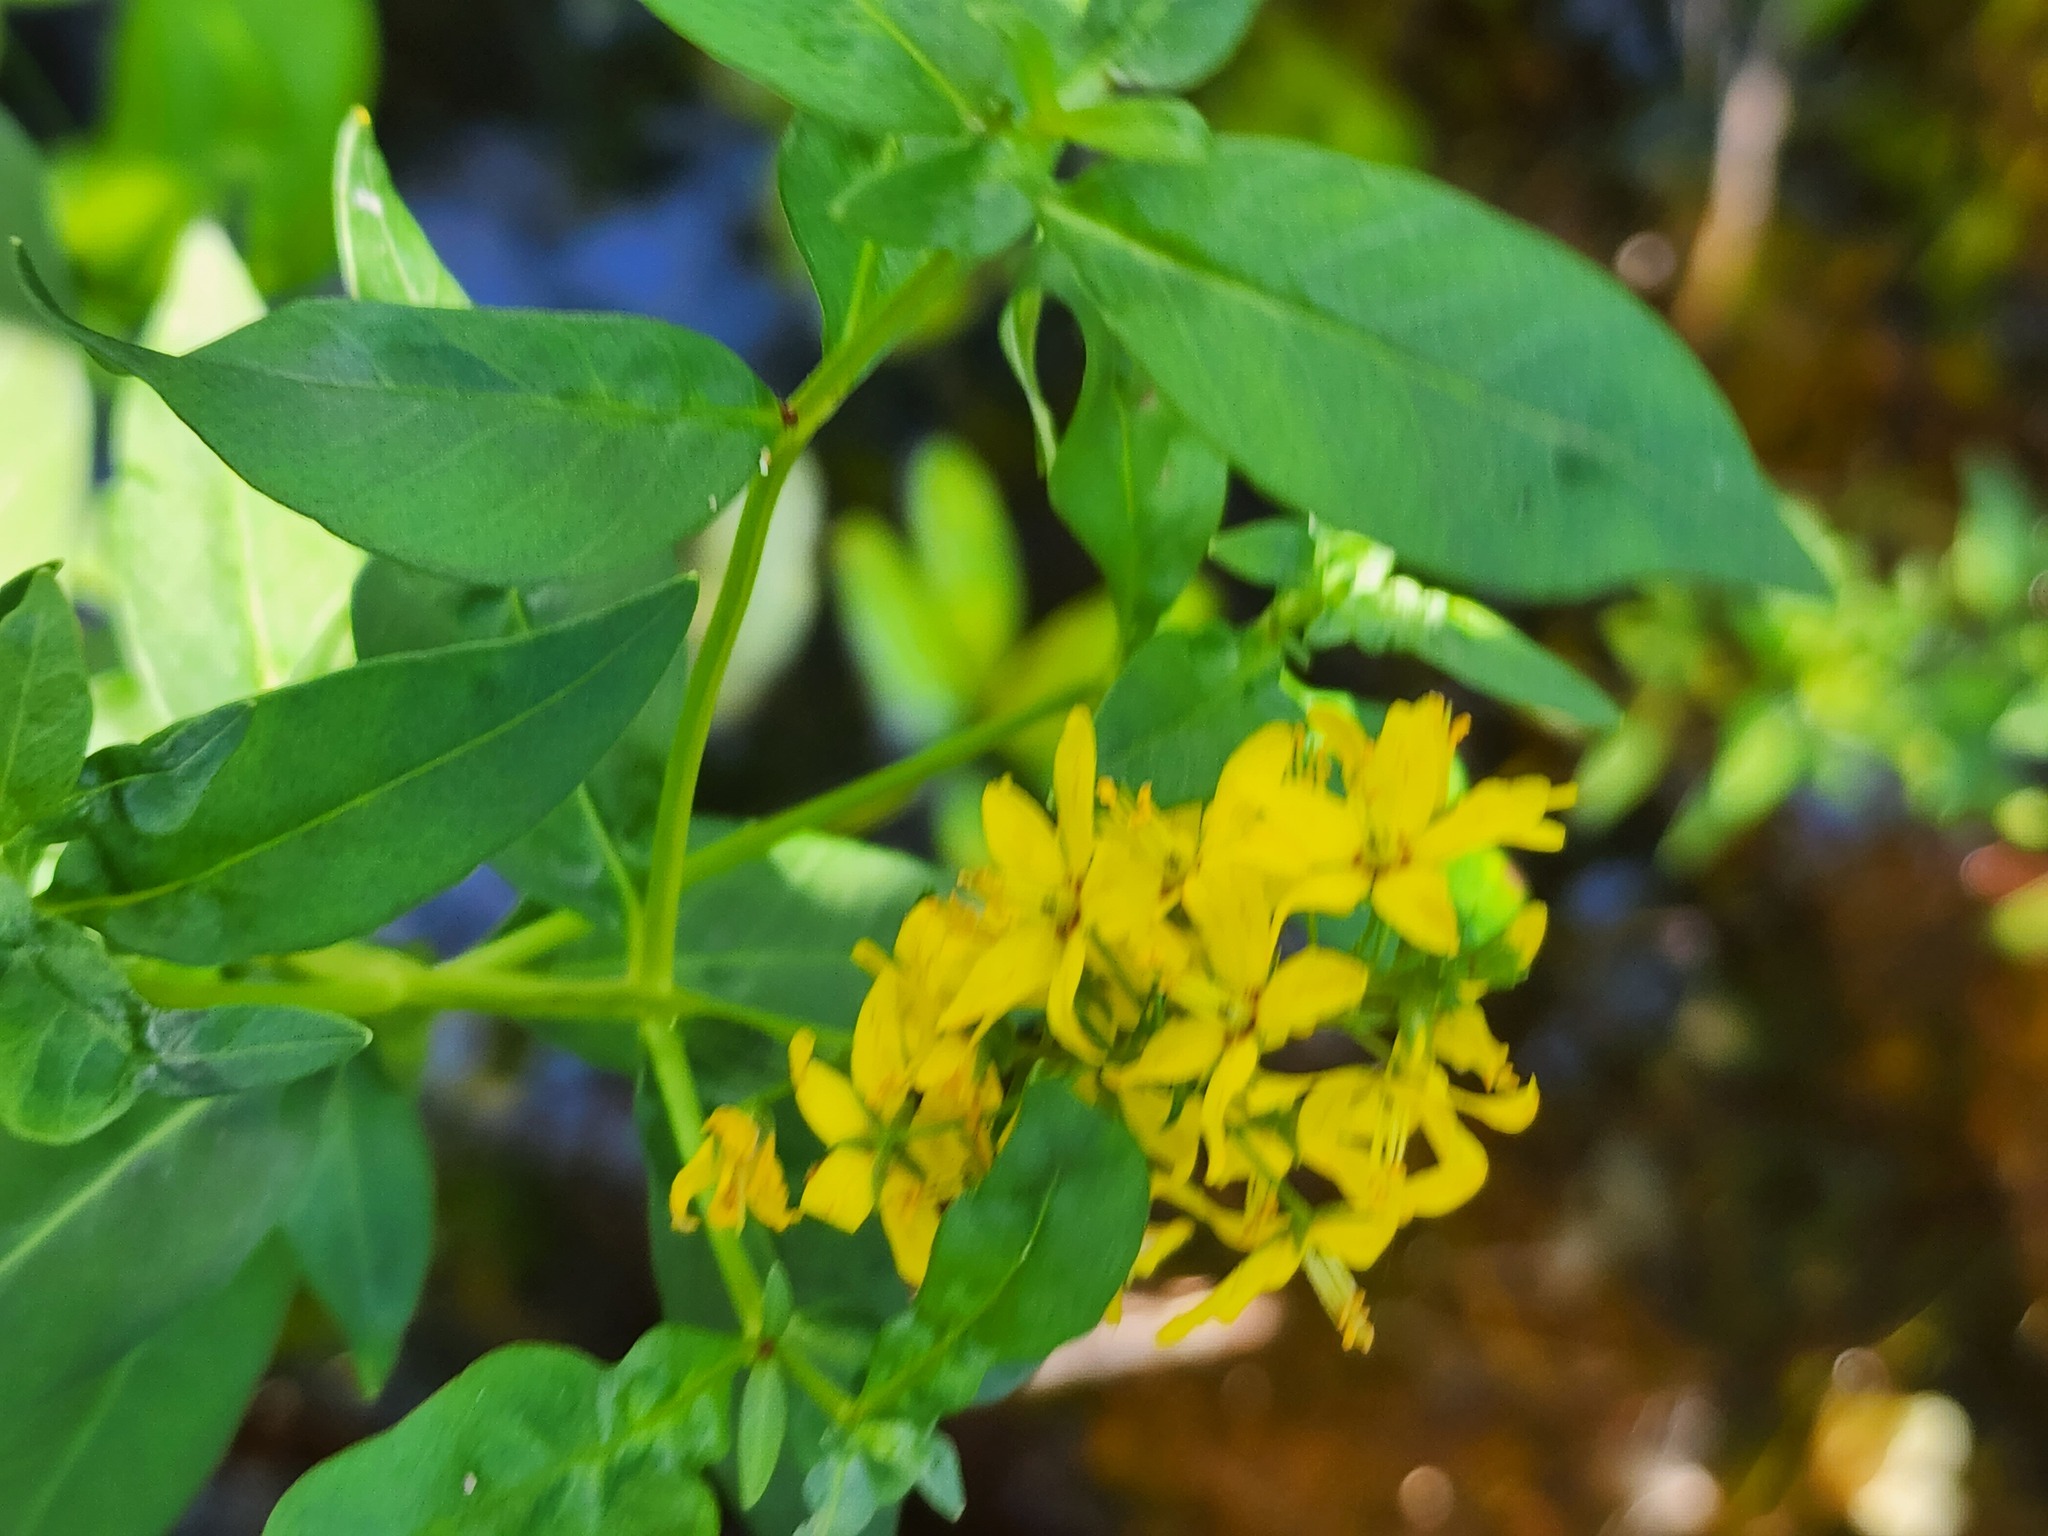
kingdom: Plantae
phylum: Tracheophyta
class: Magnoliopsida
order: Ericales
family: Primulaceae
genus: Lysimachia
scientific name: Lysimachia terrestris
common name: Lake loosestrife
